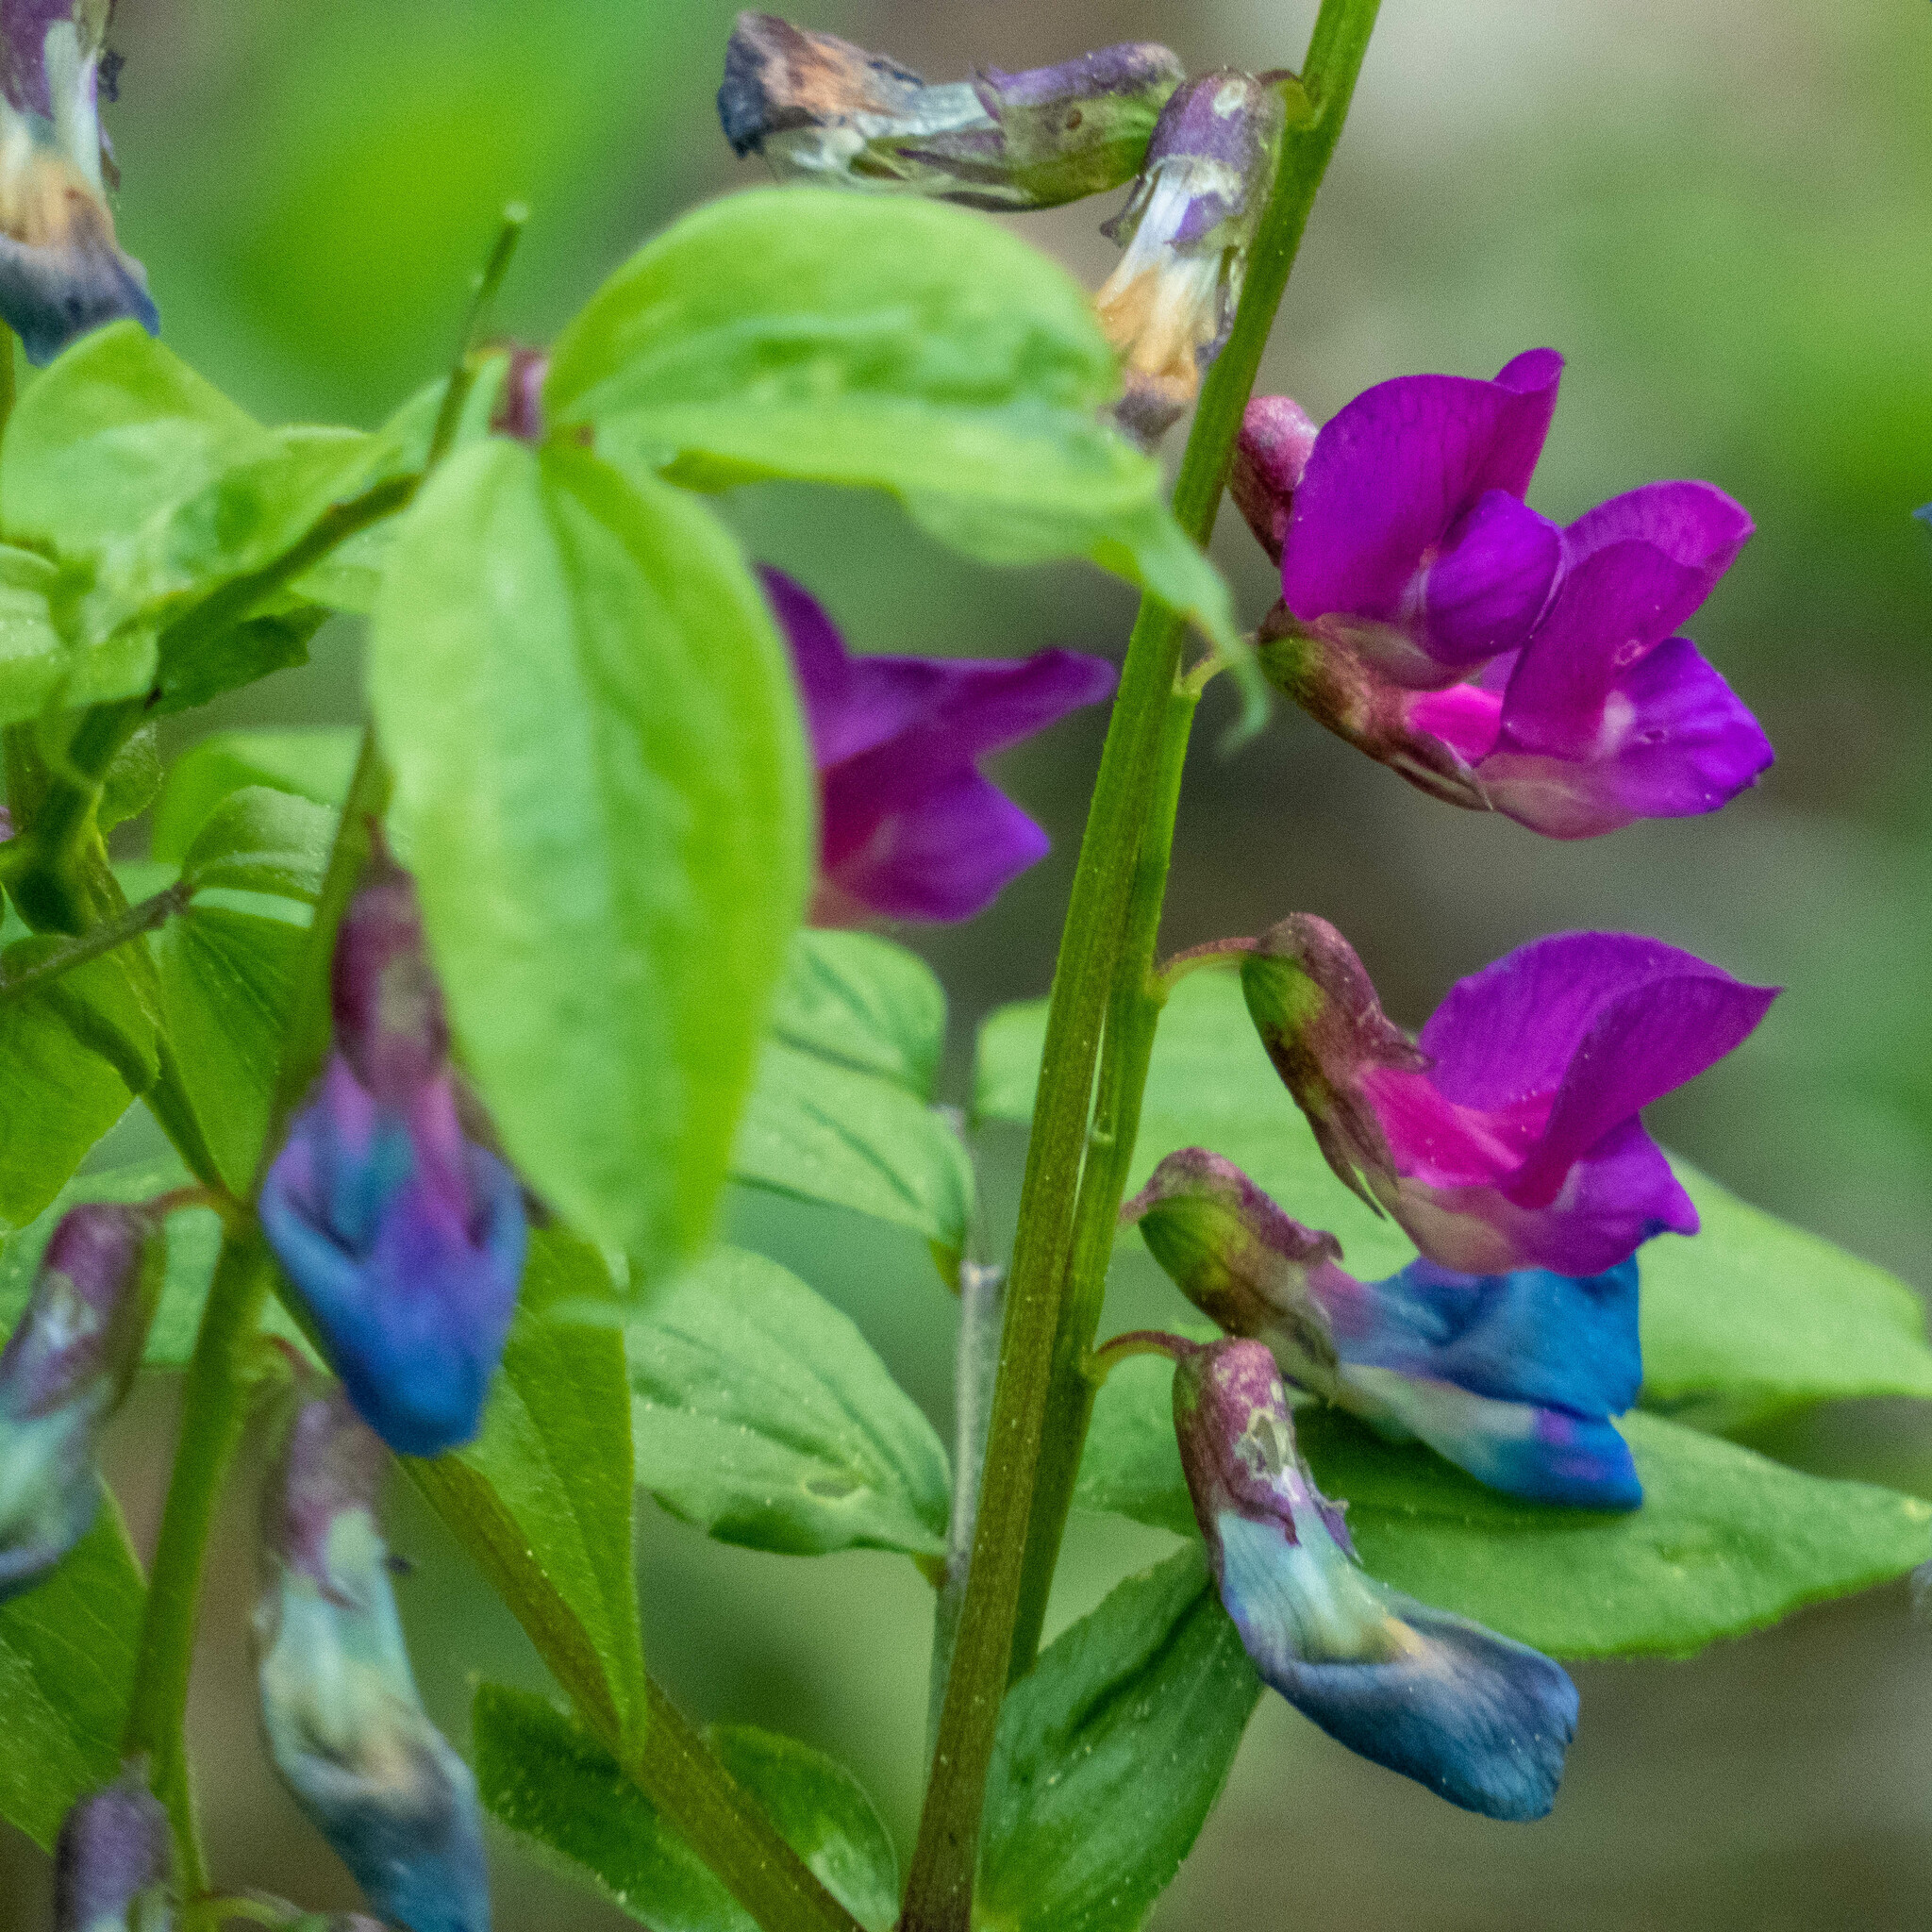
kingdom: Plantae
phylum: Tracheophyta
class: Magnoliopsida
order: Fabales
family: Fabaceae
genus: Lathyrus
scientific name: Lathyrus vernus
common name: Spring pea
